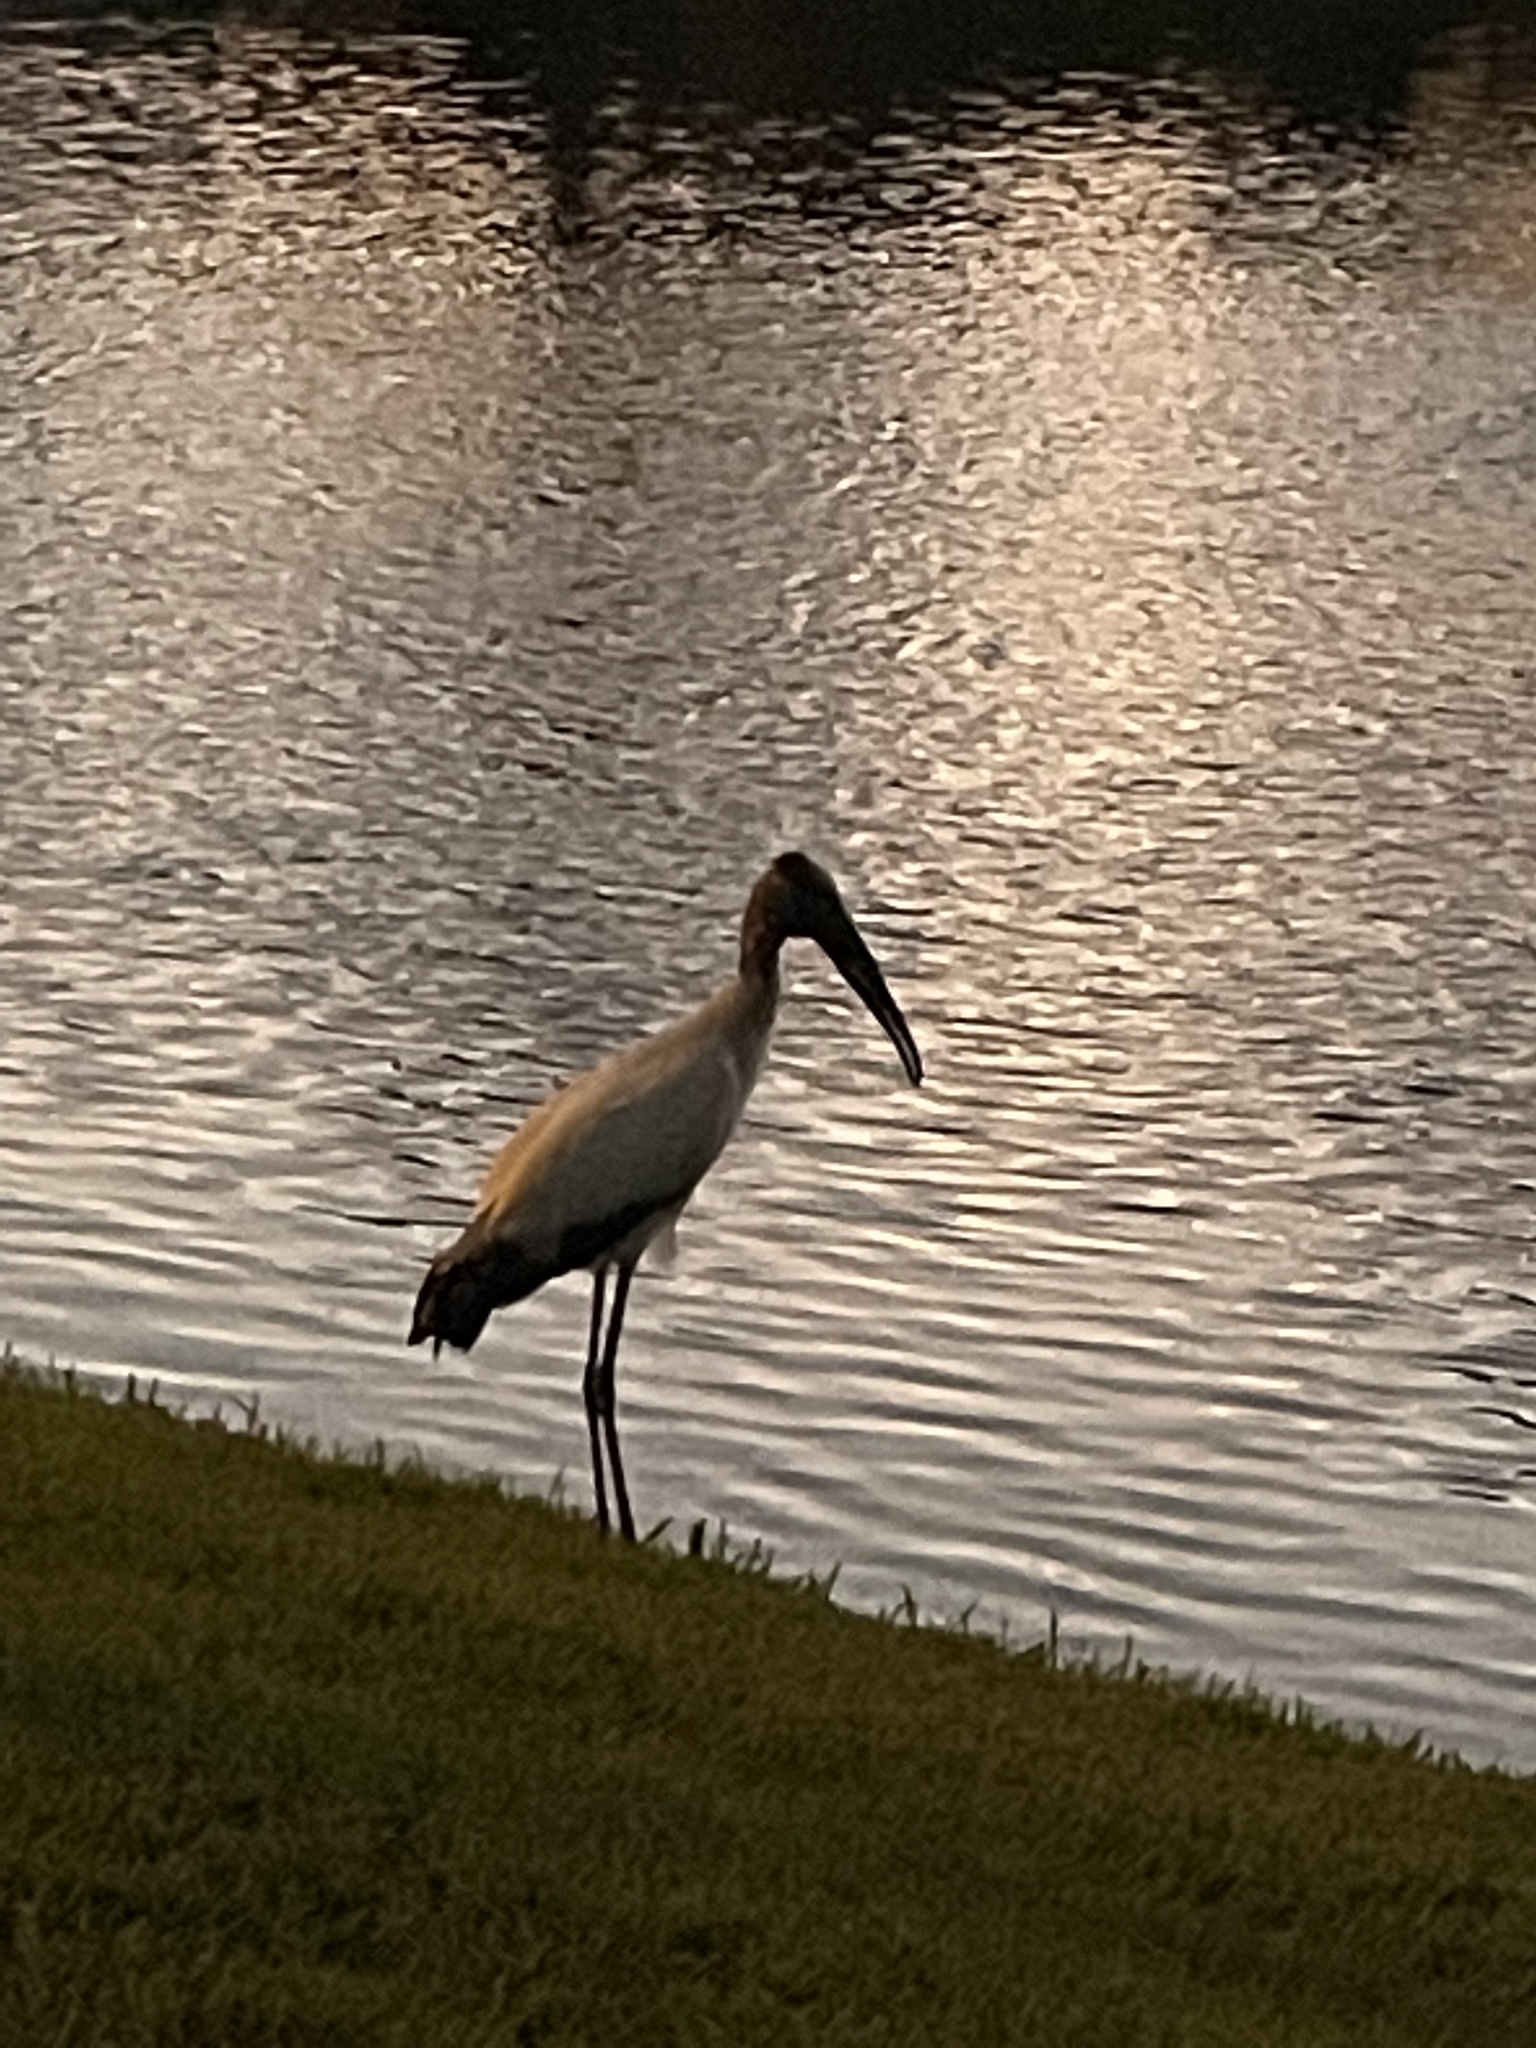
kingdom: Animalia
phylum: Chordata
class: Aves
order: Ciconiiformes
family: Ciconiidae
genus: Mycteria
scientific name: Mycteria americana
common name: Wood stork
